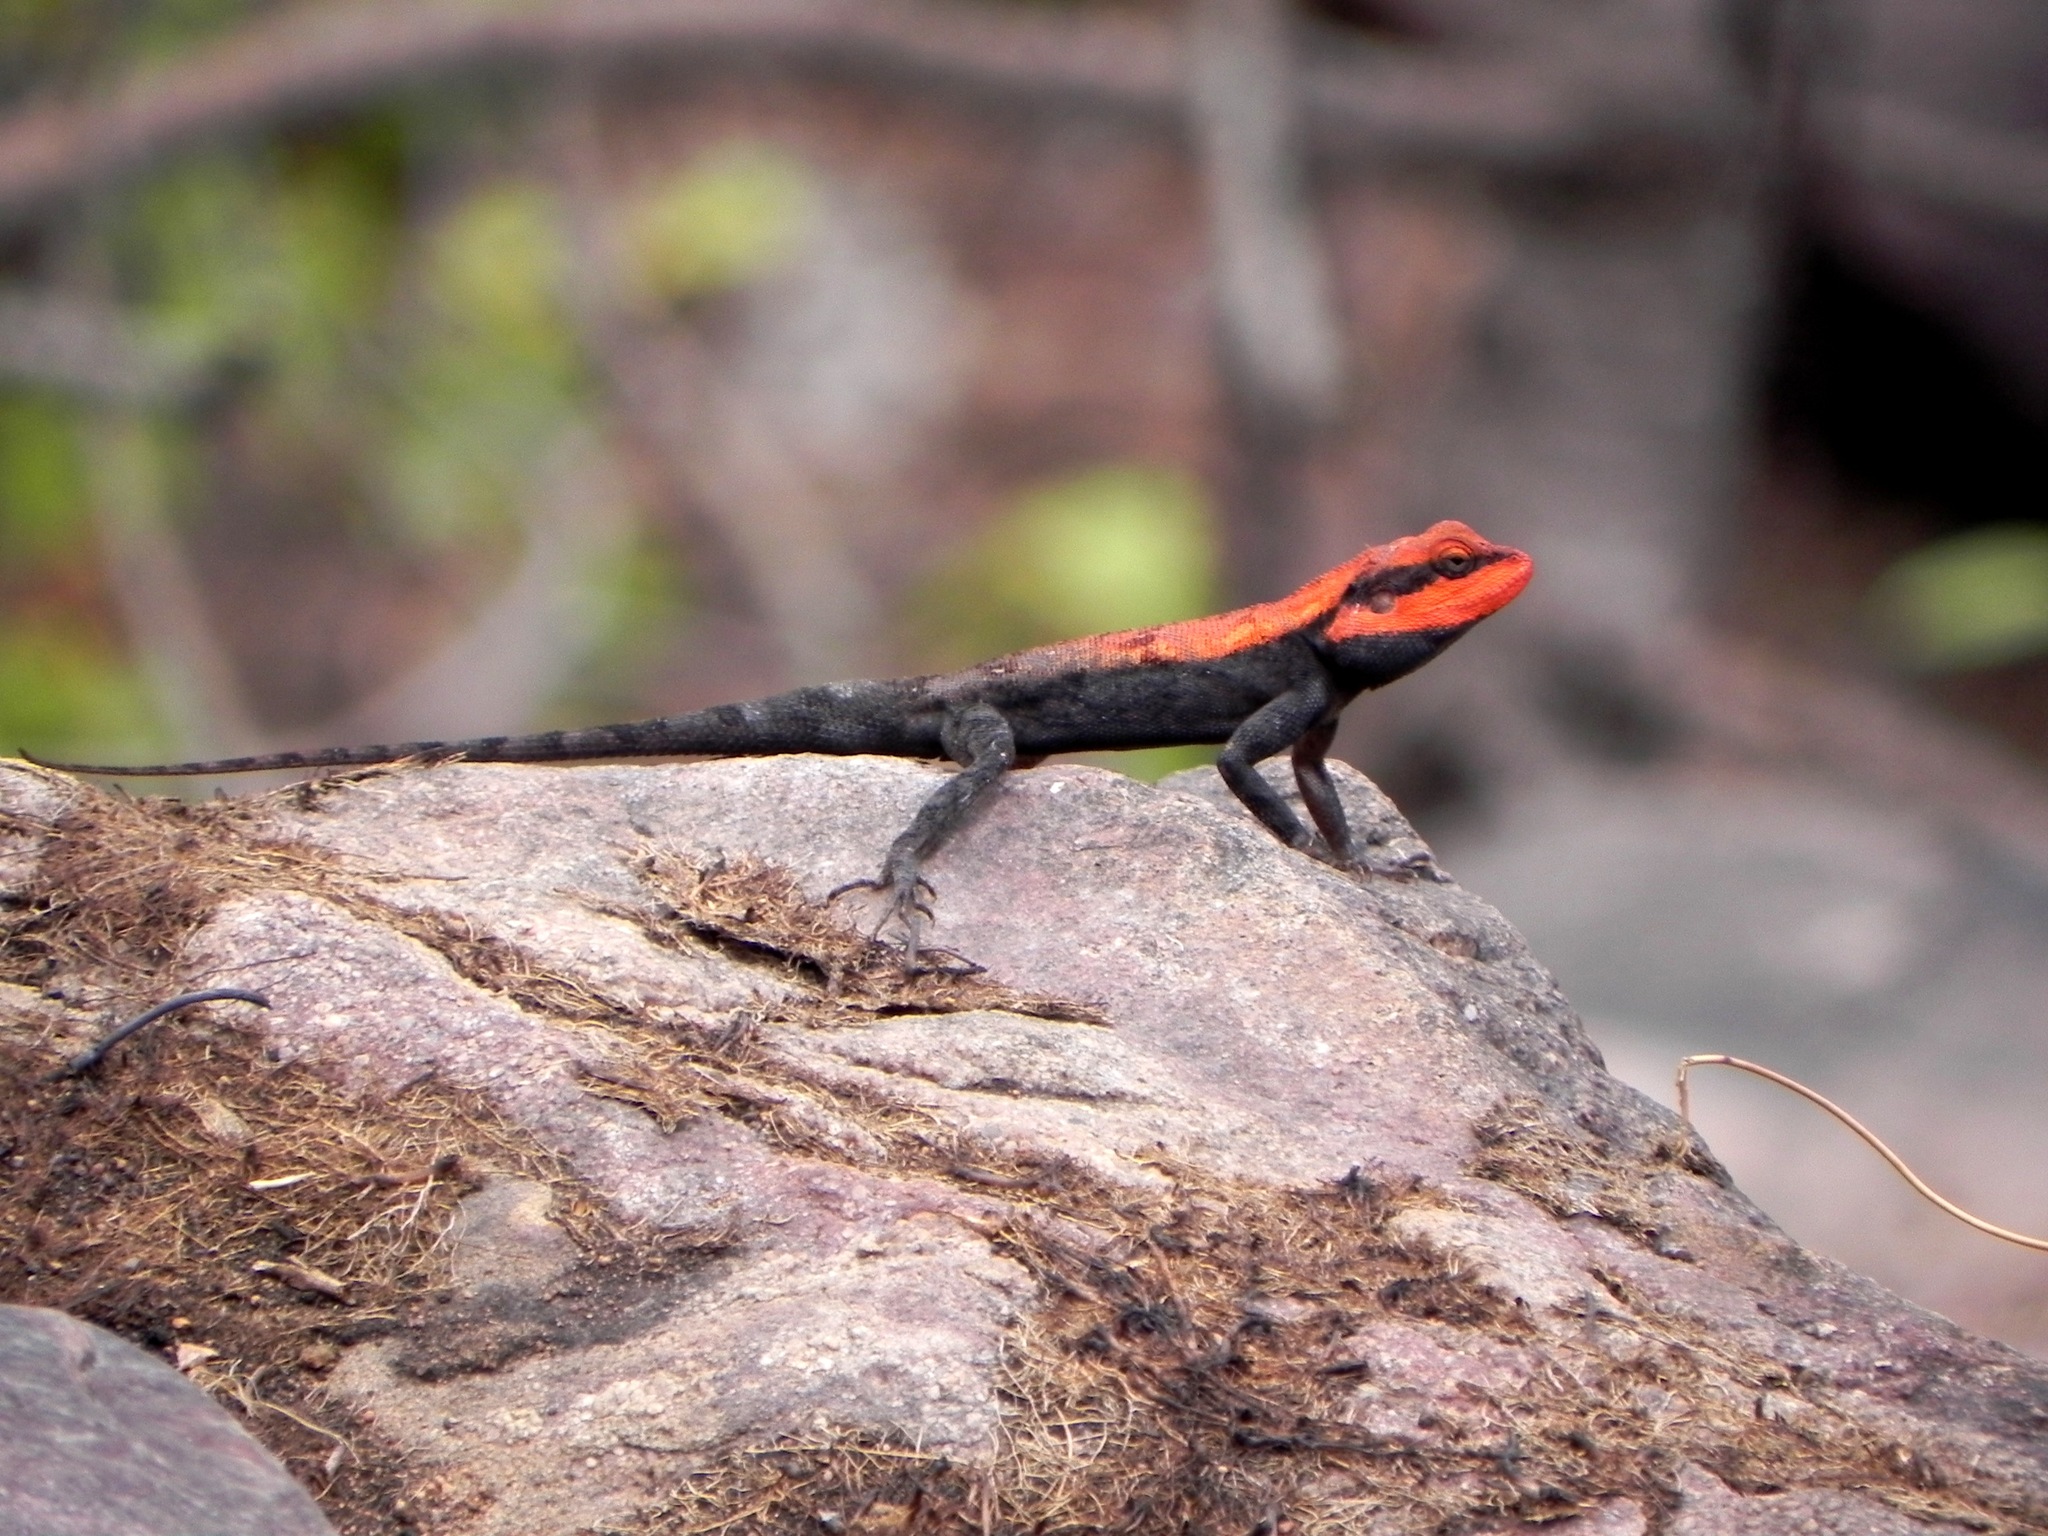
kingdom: Animalia
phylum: Chordata
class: Squamata
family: Agamidae
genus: Psammophilus
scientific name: Psammophilus dorsalis
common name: South indian rock agama
